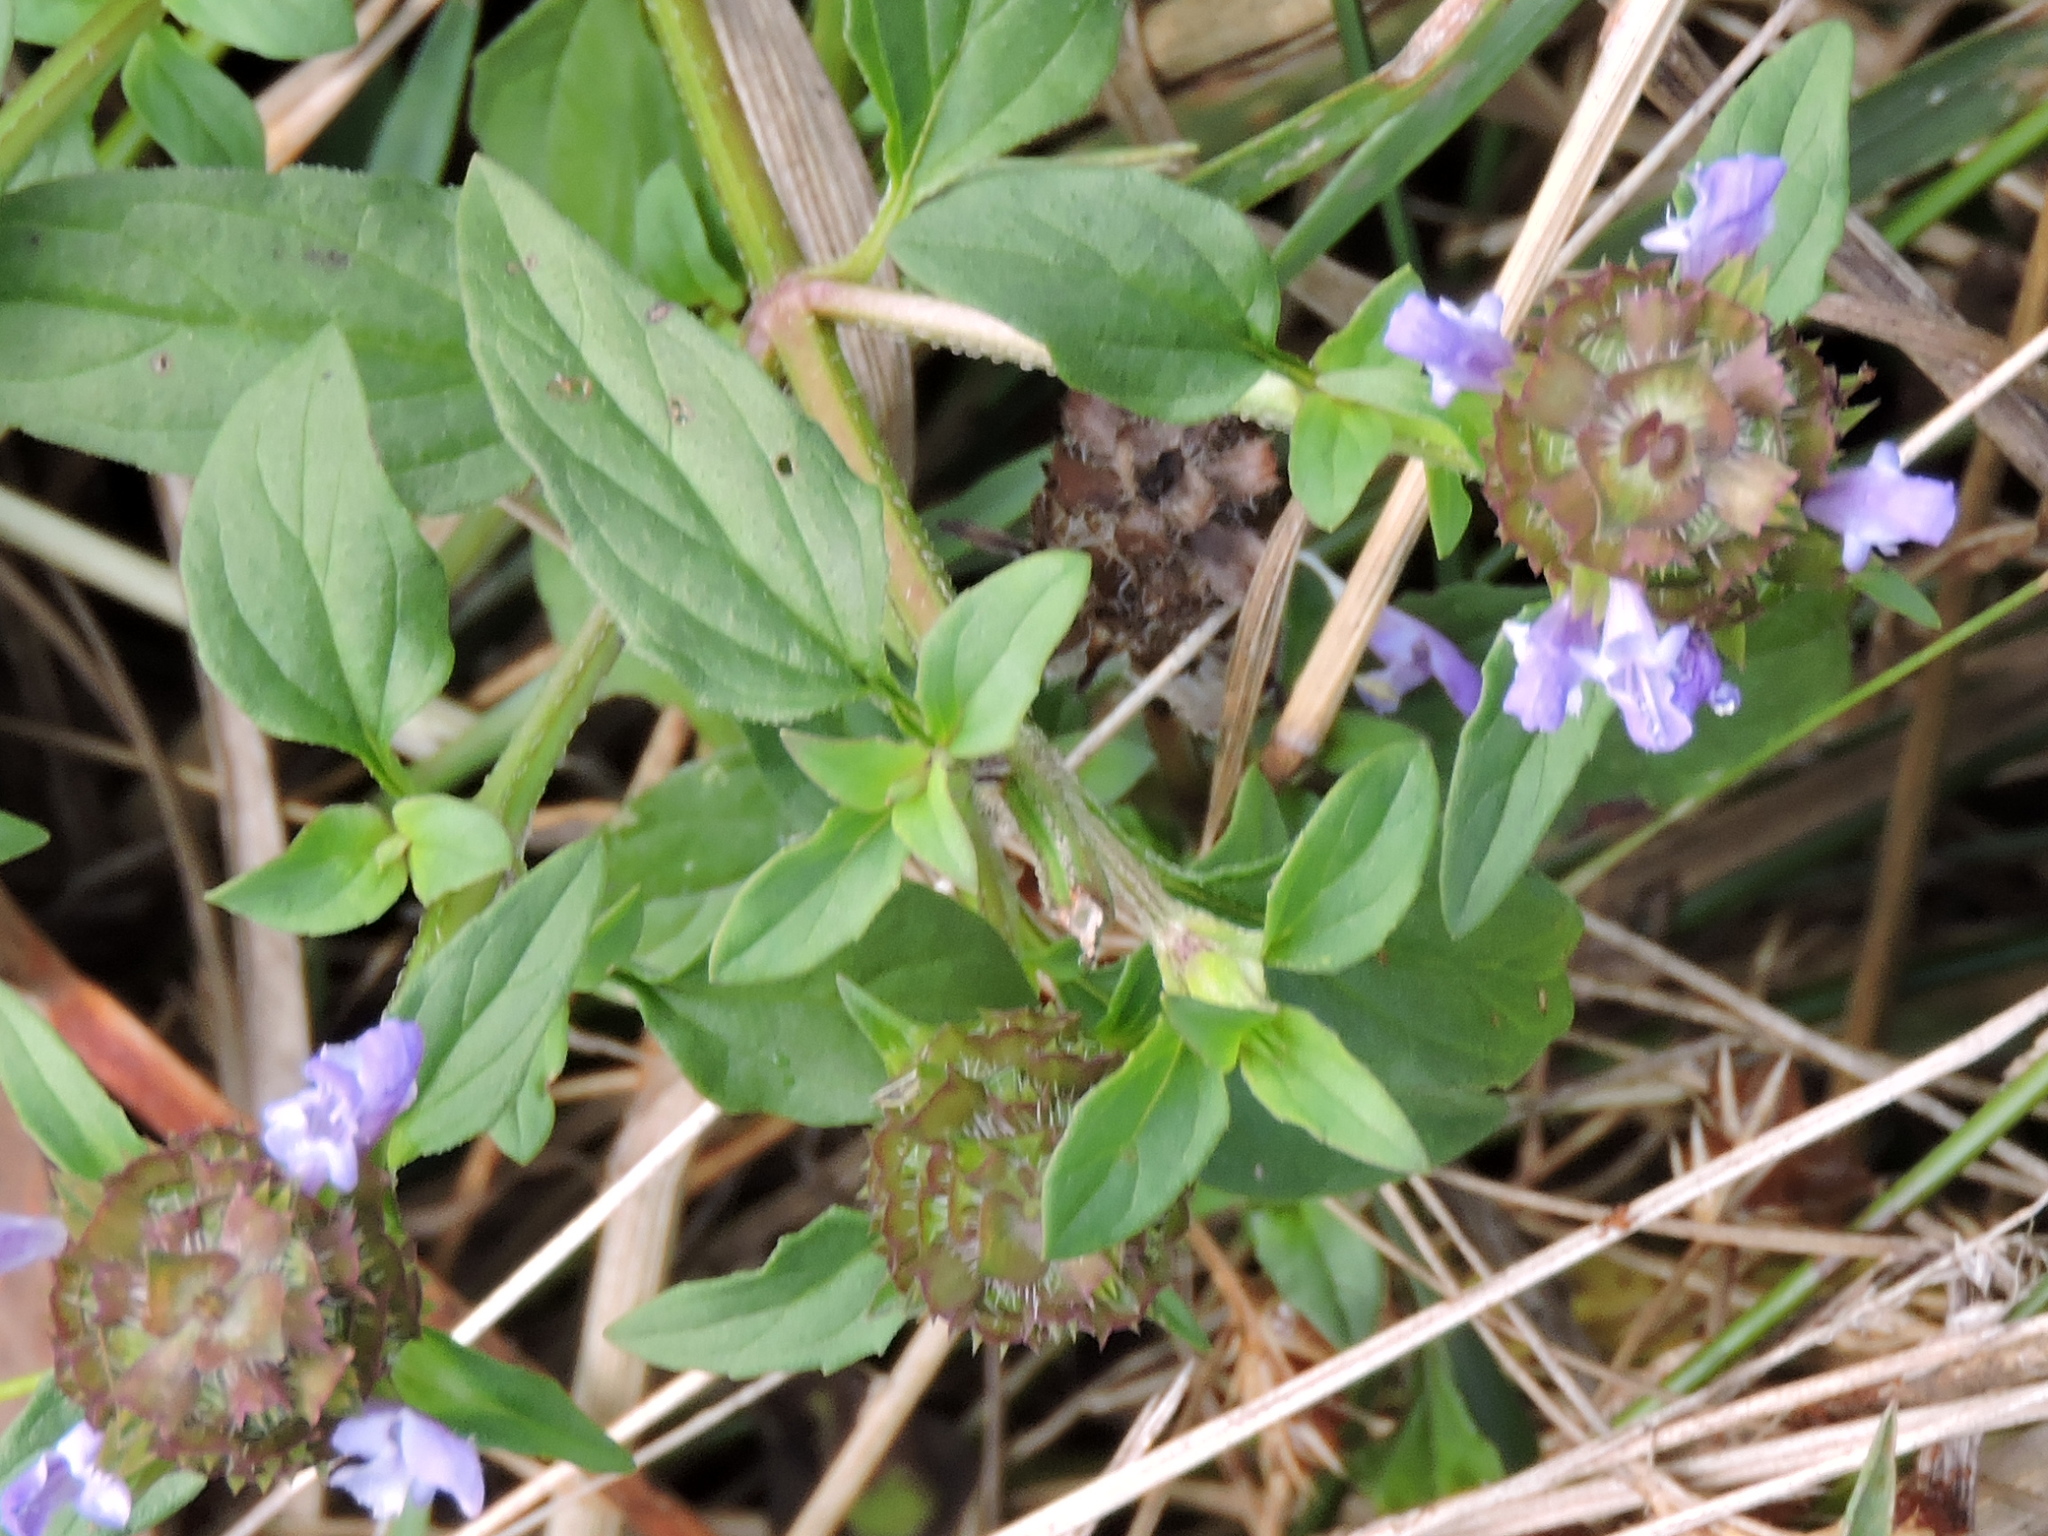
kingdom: Plantae
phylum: Tracheophyta
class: Magnoliopsida
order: Lamiales
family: Lamiaceae
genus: Prunella
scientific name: Prunella vulgaris
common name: Heal-all
